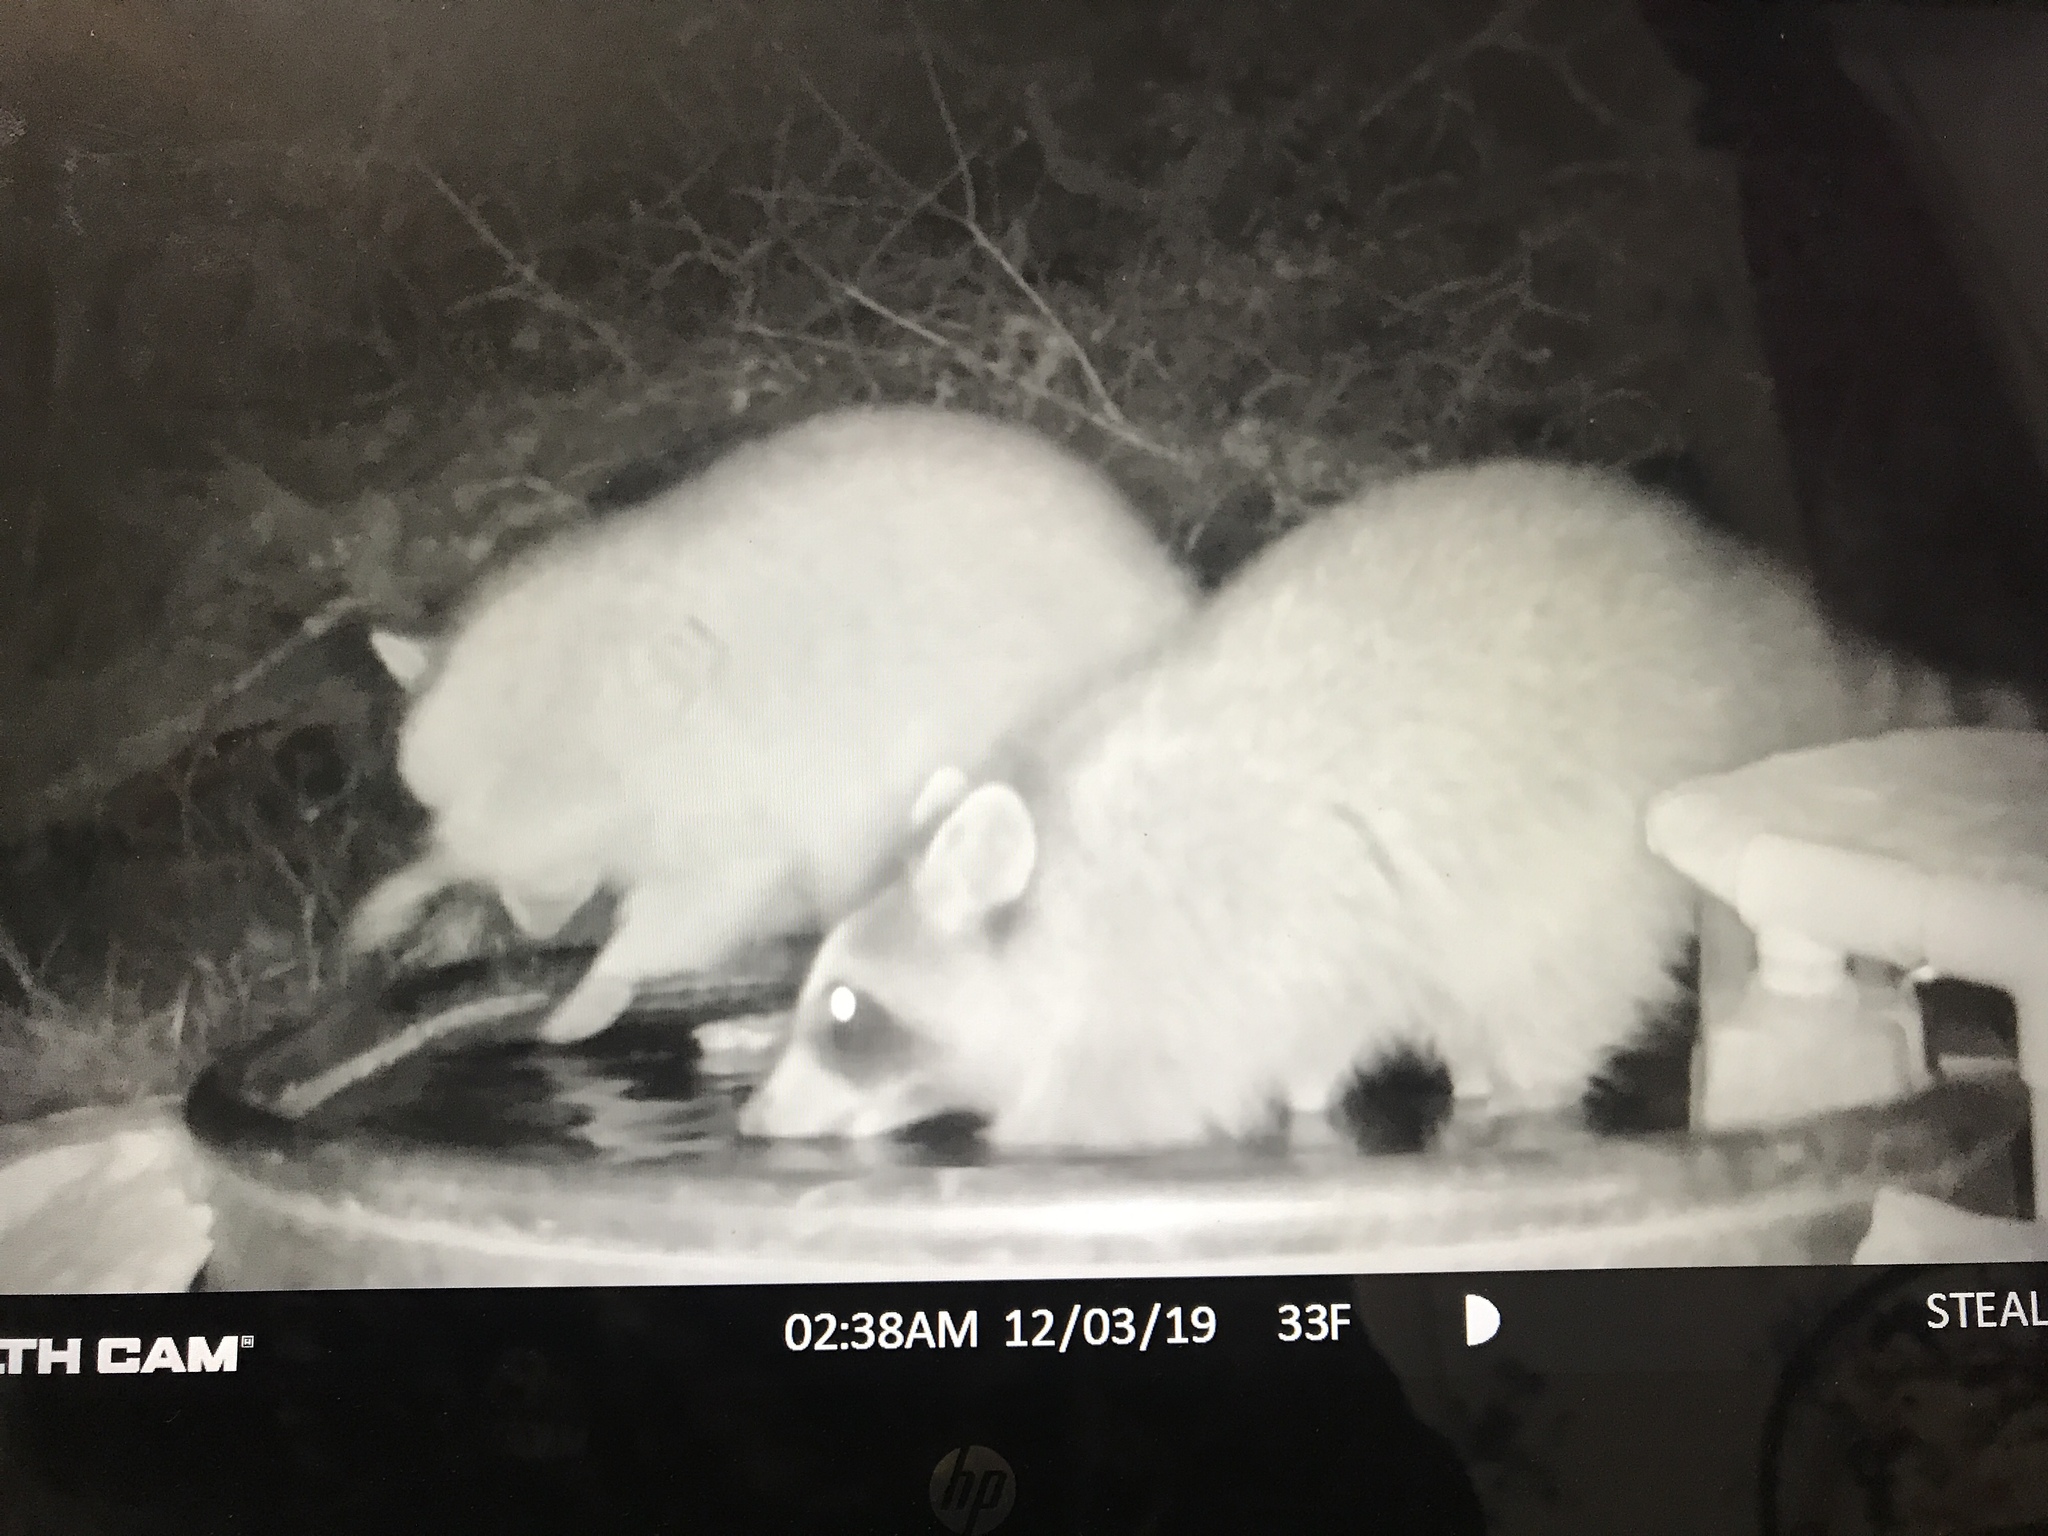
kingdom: Animalia
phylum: Chordata
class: Mammalia
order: Carnivora
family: Procyonidae
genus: Procyon
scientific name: Procyon lotor
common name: Raccoon
